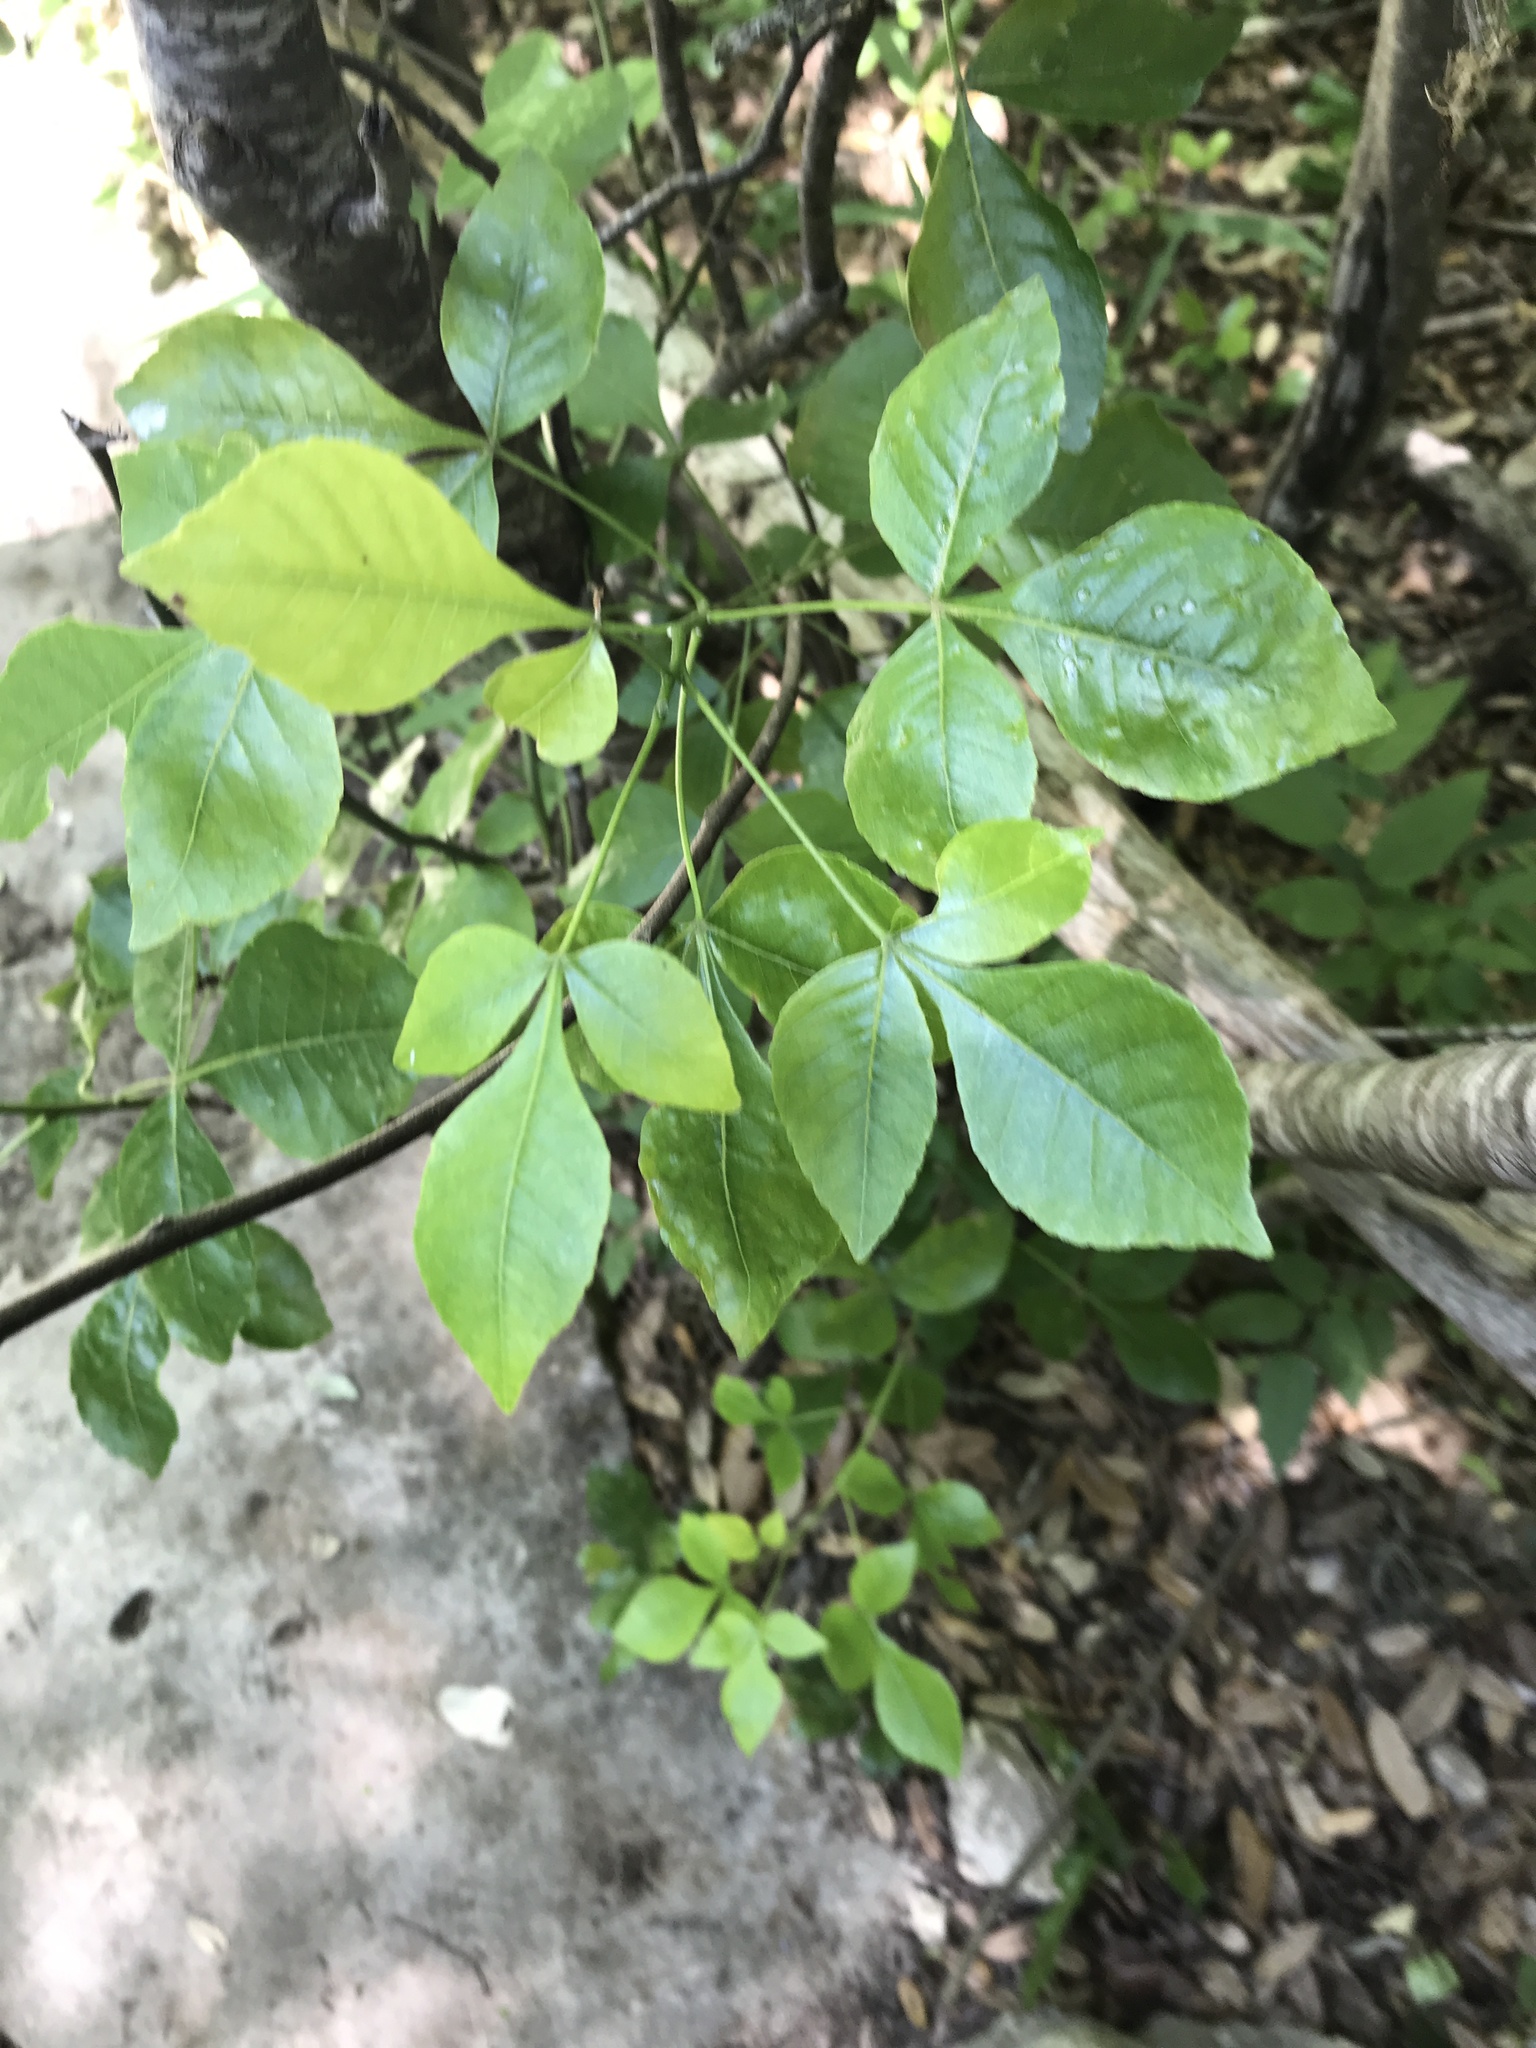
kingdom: Plantae
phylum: Tracheophyta
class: Magnoliopsida
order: Sapindales
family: Rutaceae
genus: Ptelea
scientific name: Ptelea trifoliata
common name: Common hop-tree
